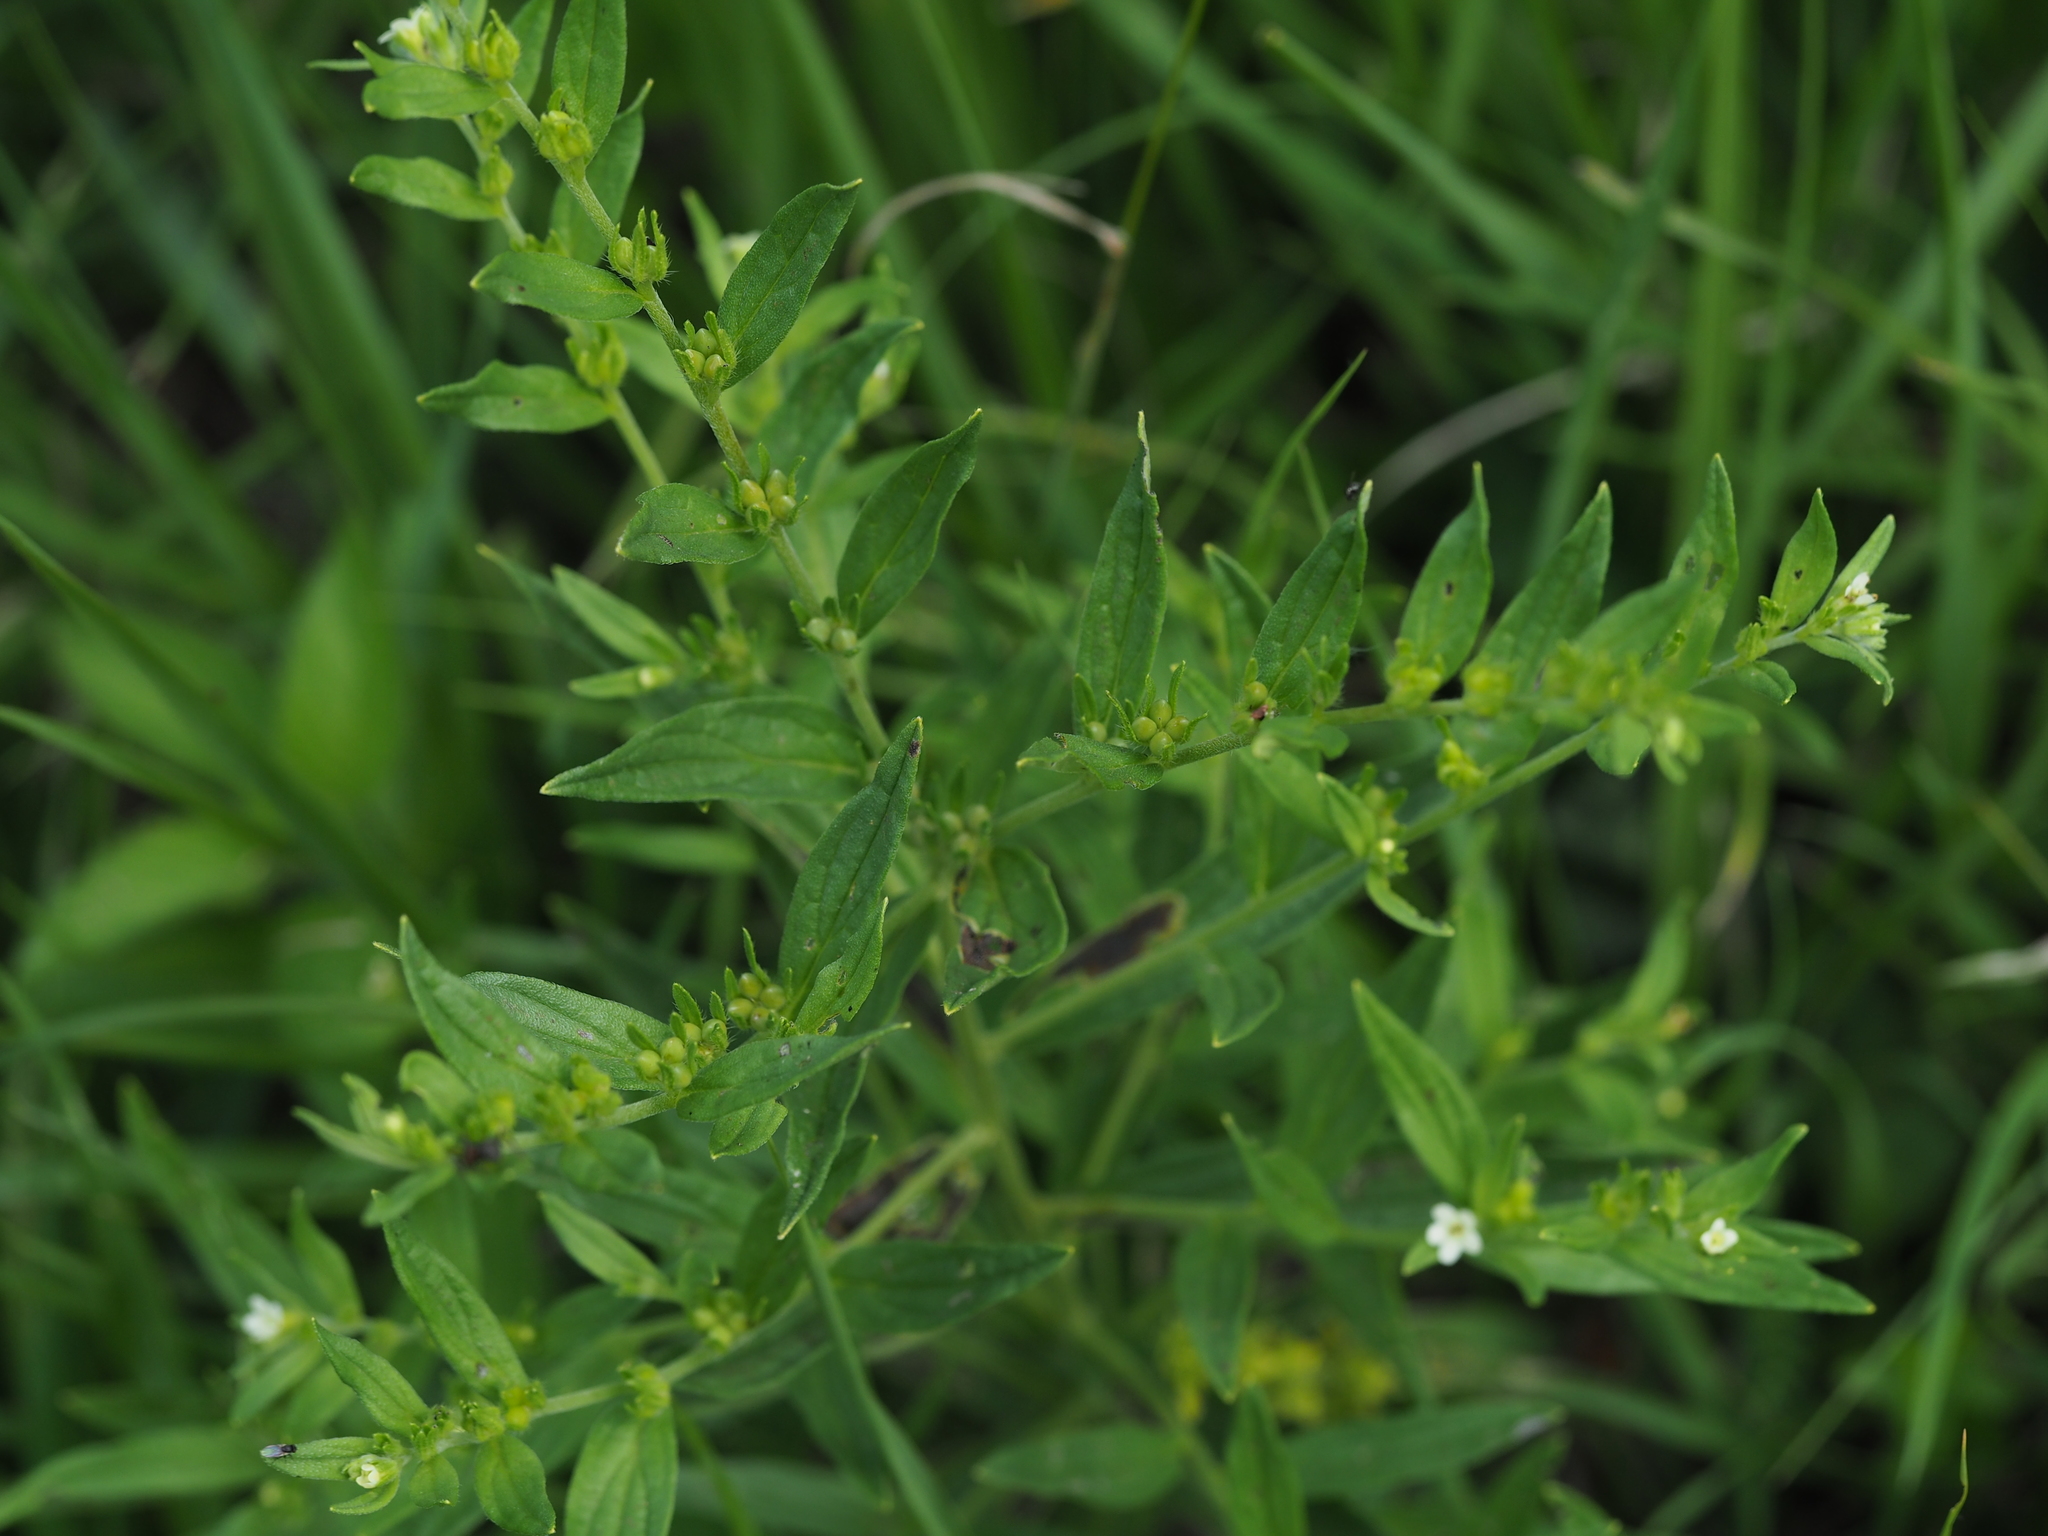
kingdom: Plantae
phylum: Tracheophyta
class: Magnoliopsida
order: Boraginales
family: Boraginaceae
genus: Lithospermum
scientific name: Lithospermum officinale
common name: Common gromwell
